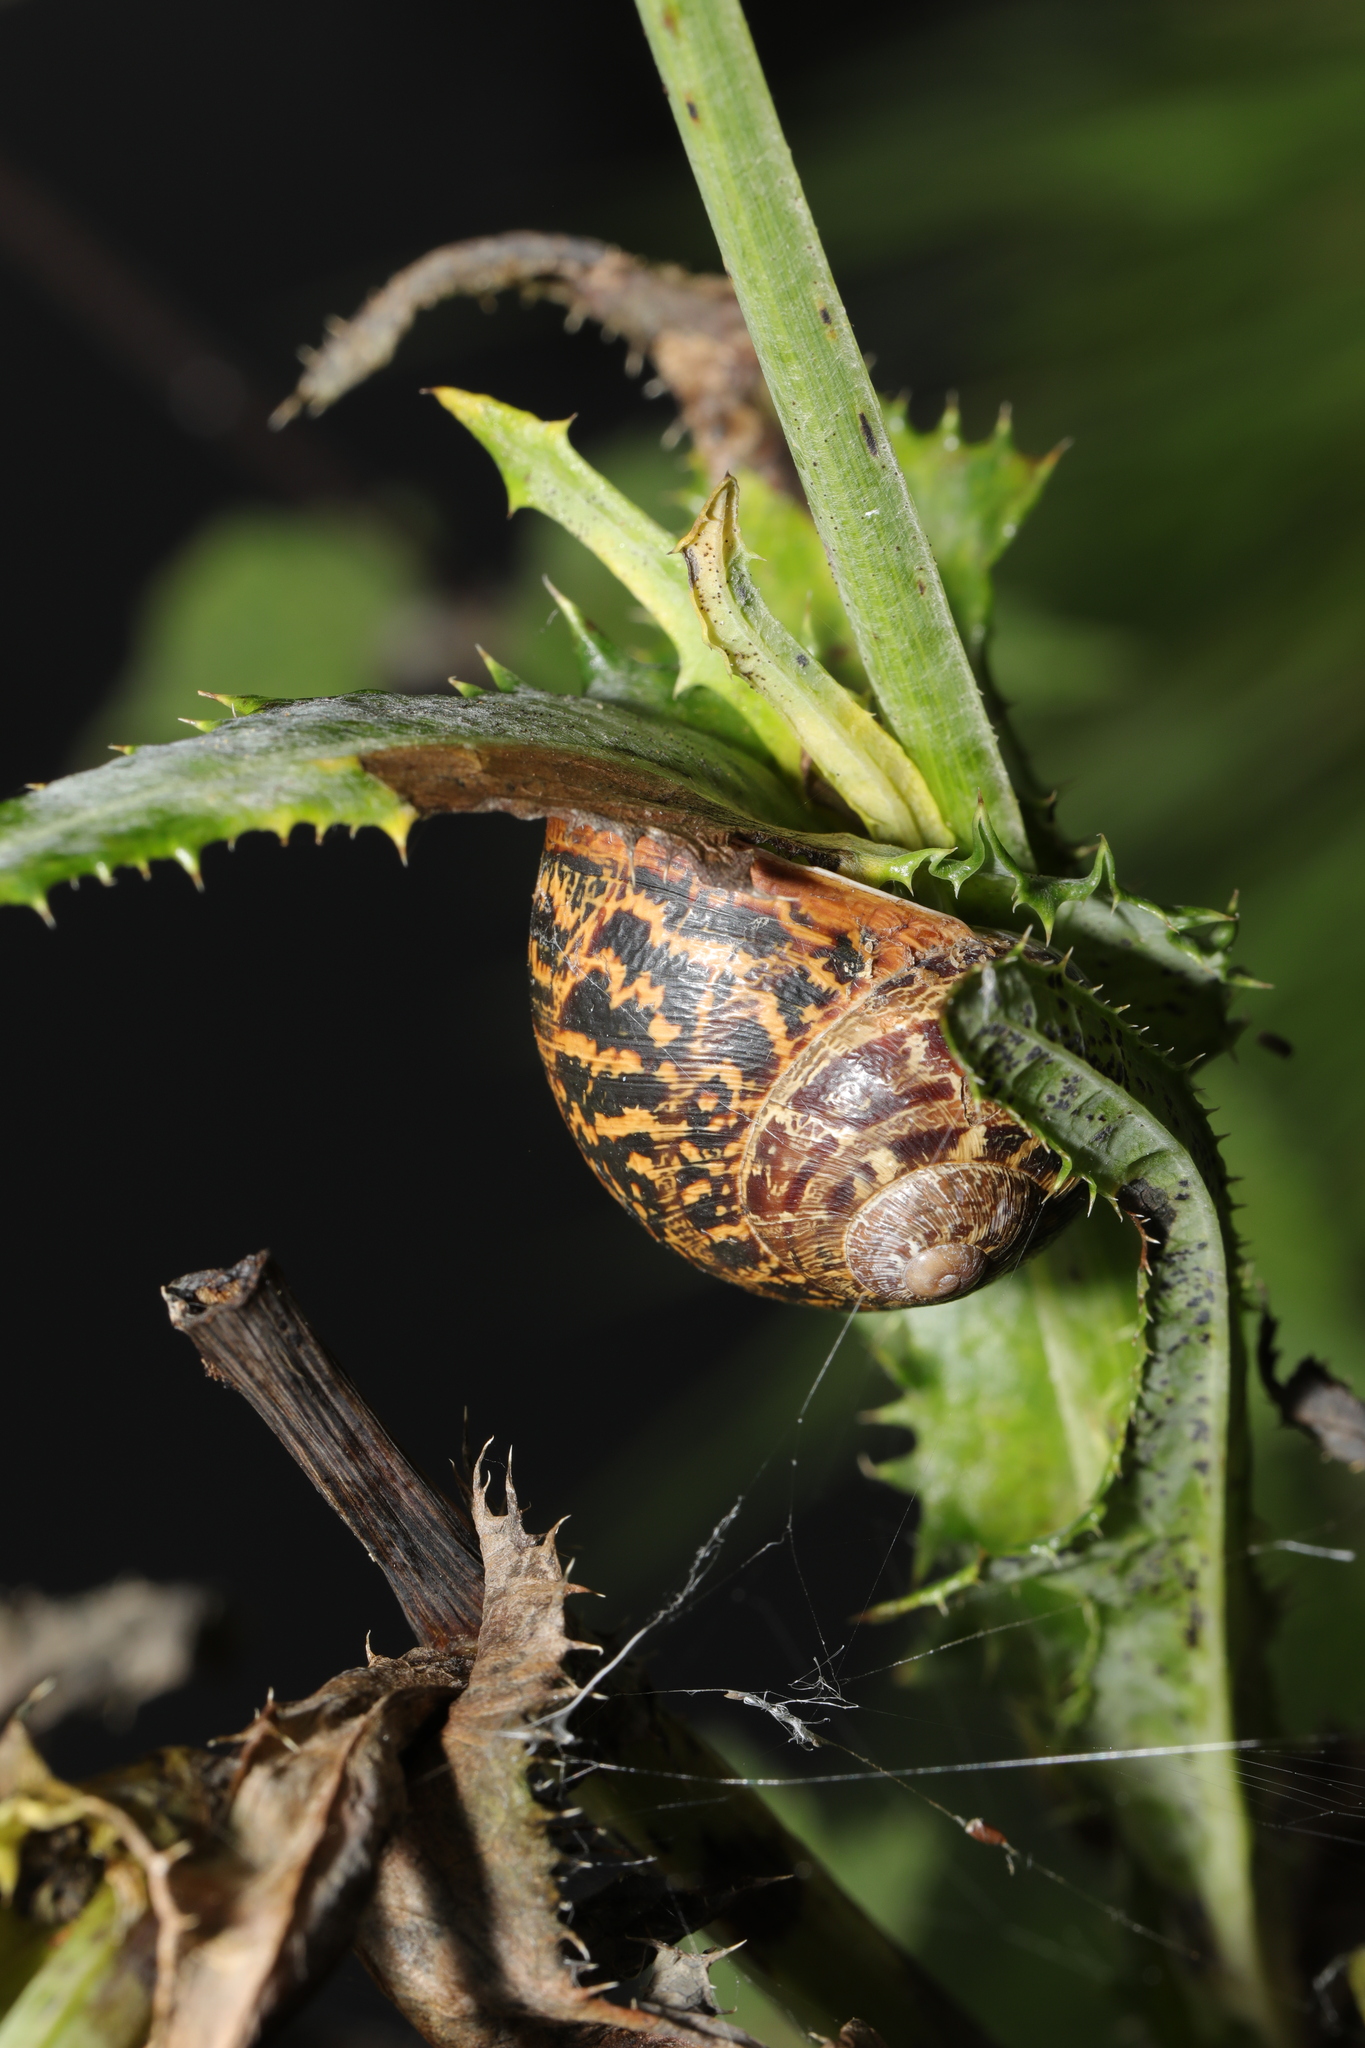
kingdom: Animalia
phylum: Mollusca
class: Gastropoda
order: Stylommatophora
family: Helicidae
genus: Cornu
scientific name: Cornu aspersum
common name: Brown garden snail
